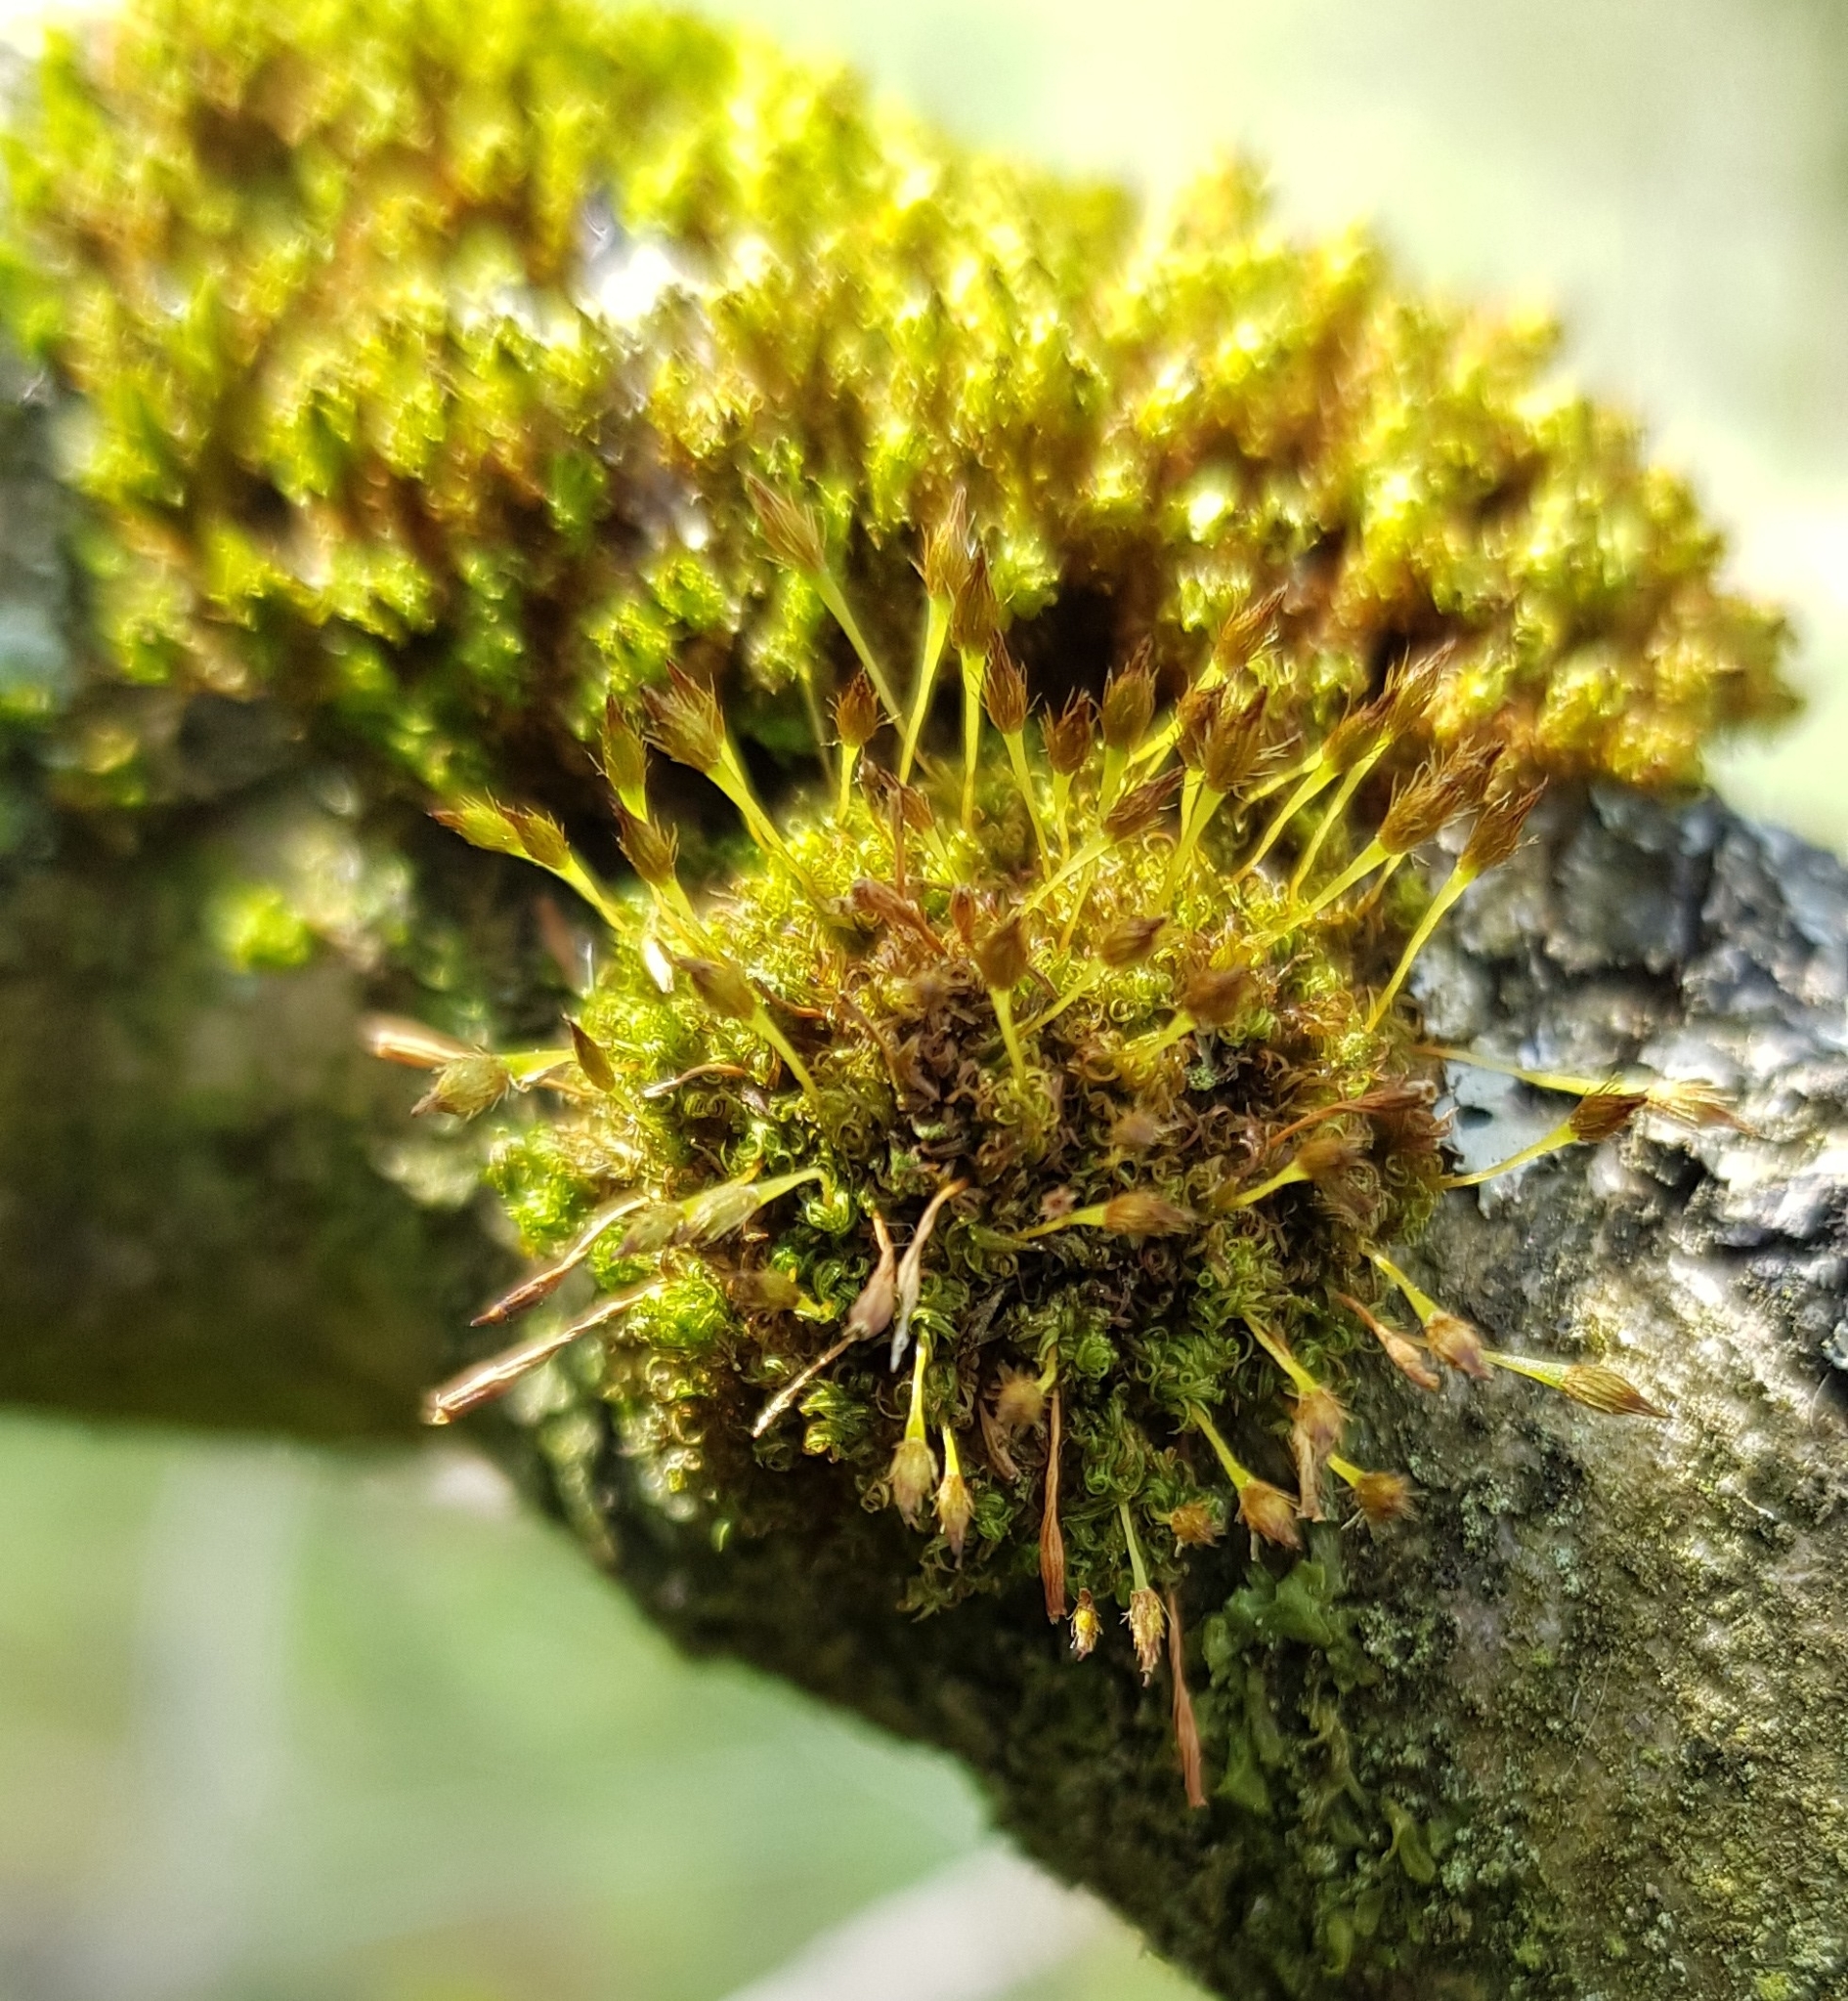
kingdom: Plantae
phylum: Bryophyta
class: Bryopsida
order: Orthotrichales
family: Orthotrichaceae
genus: Ulota
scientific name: Ulota bruchii
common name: Bruch's pincushion
